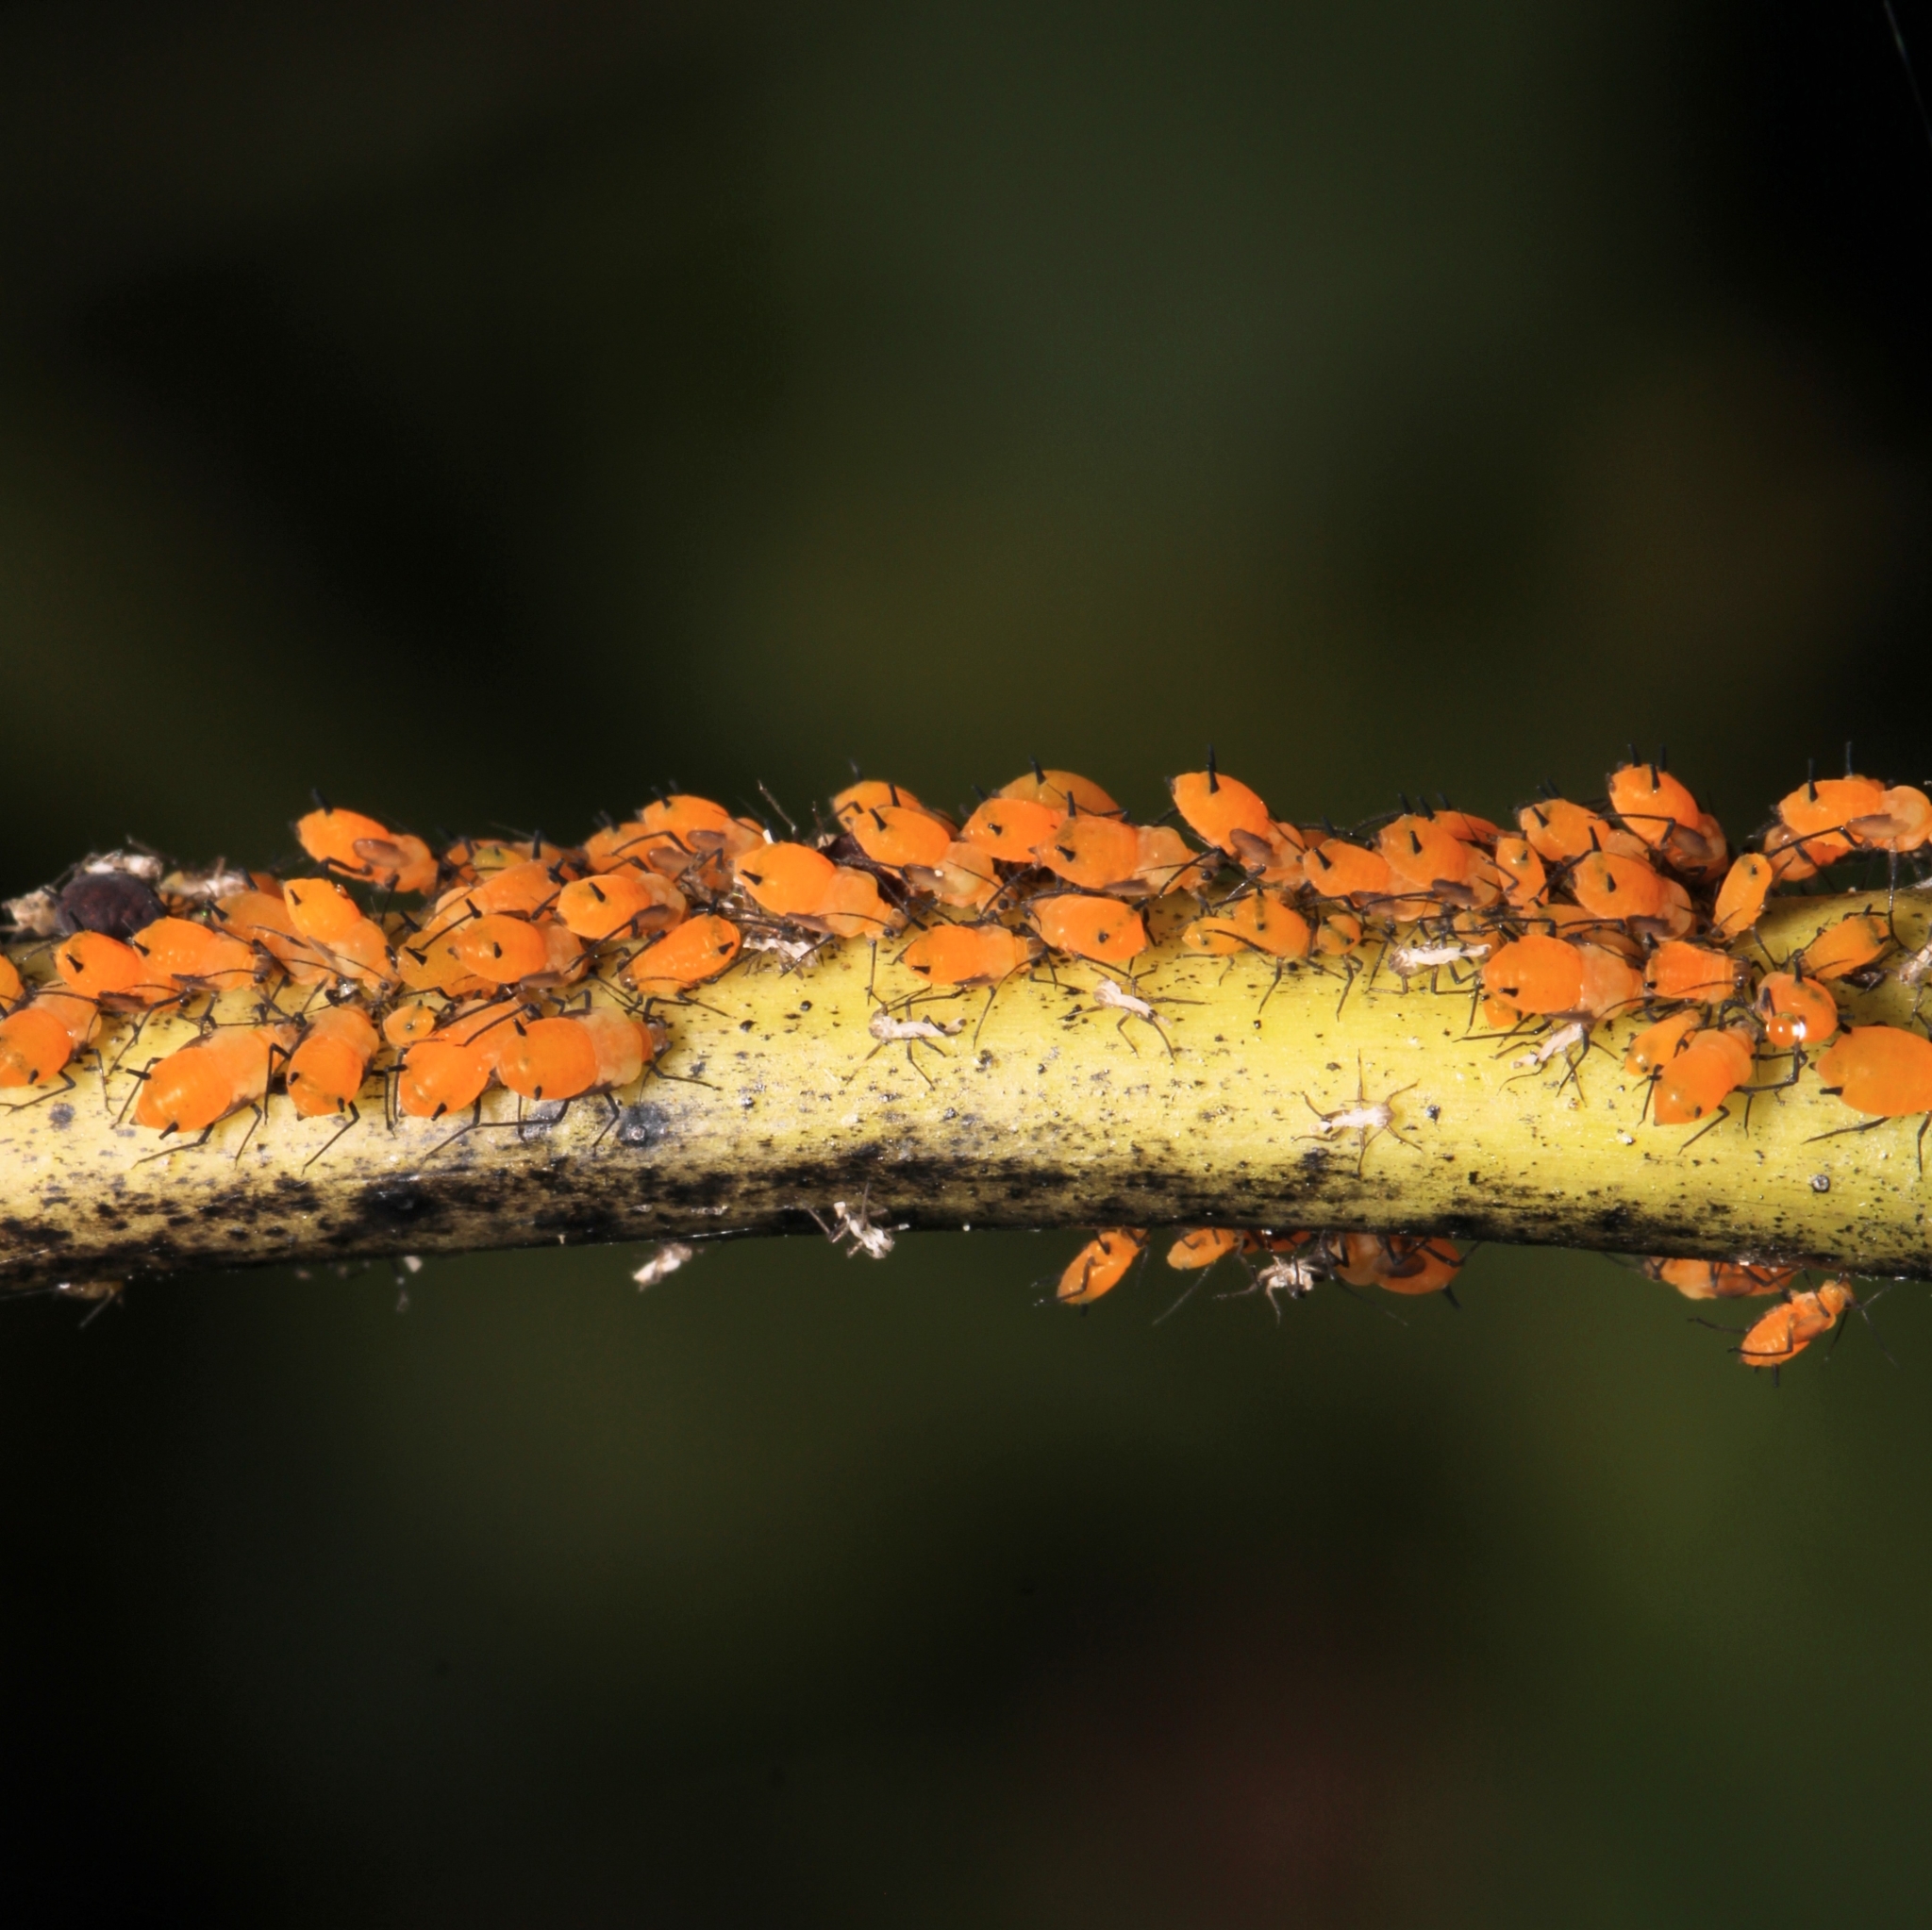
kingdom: Animalia
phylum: Arthropoda
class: Insecta
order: Hemiptera
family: Aphididae
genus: Aphis
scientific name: Aphis nerii
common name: Oleander aphid
